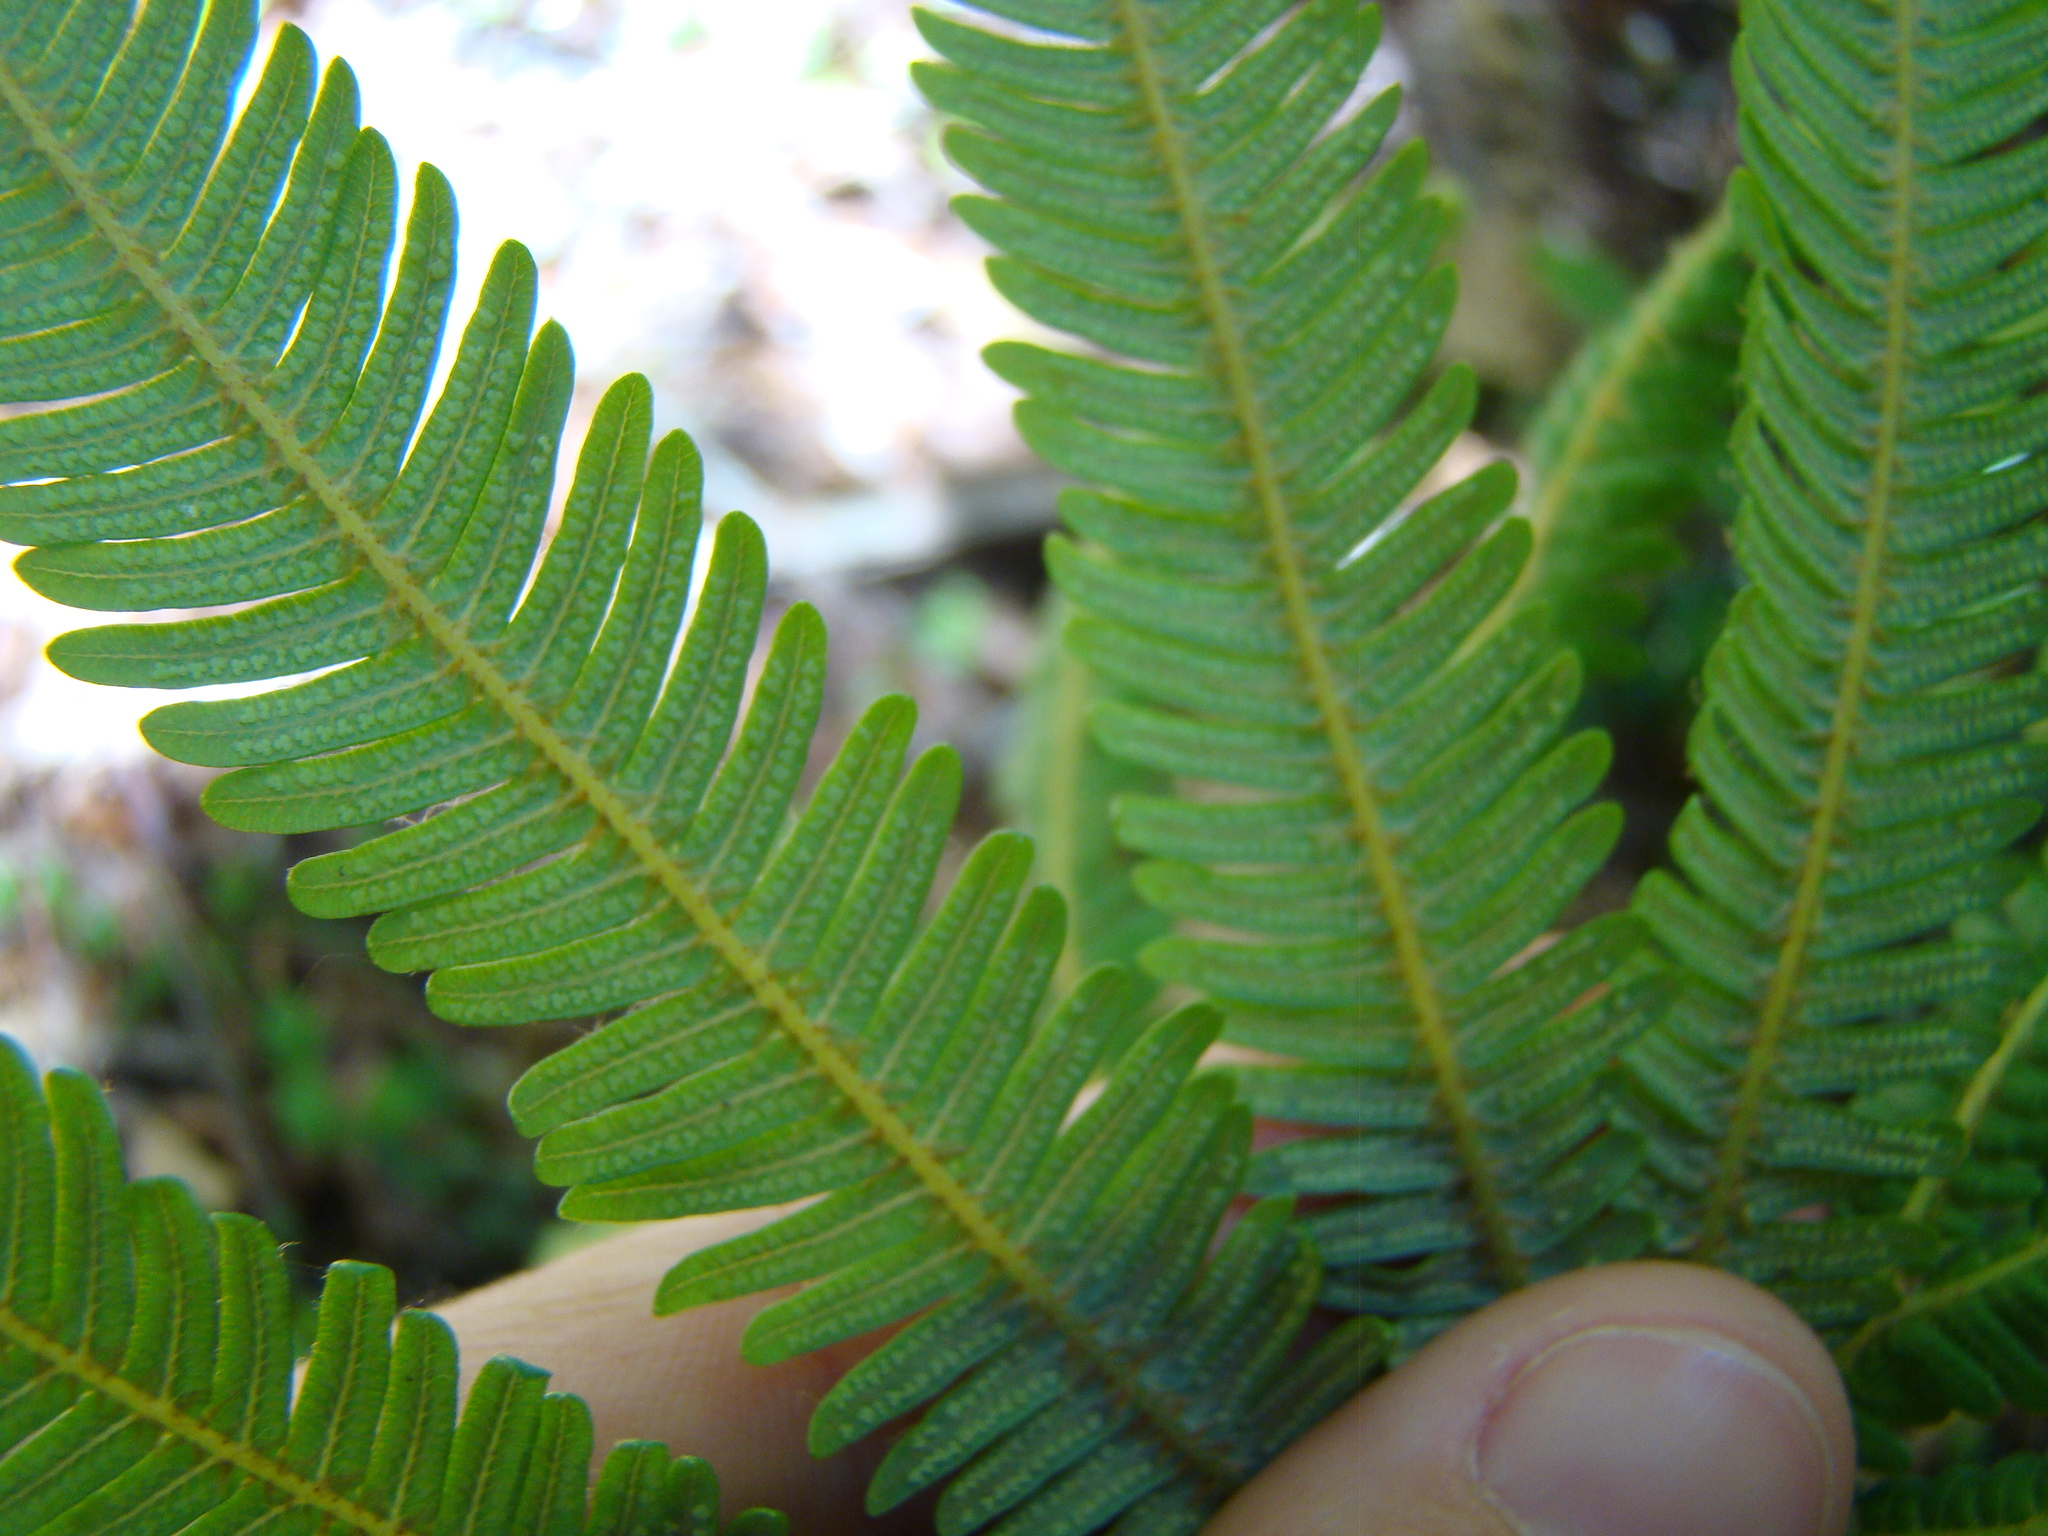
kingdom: Plantae
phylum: Tracheophyta
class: Polypodiopsida
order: Gleicheniales
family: Gleicheniaceae
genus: Sticherus
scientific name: Sticherus cunninghamii
